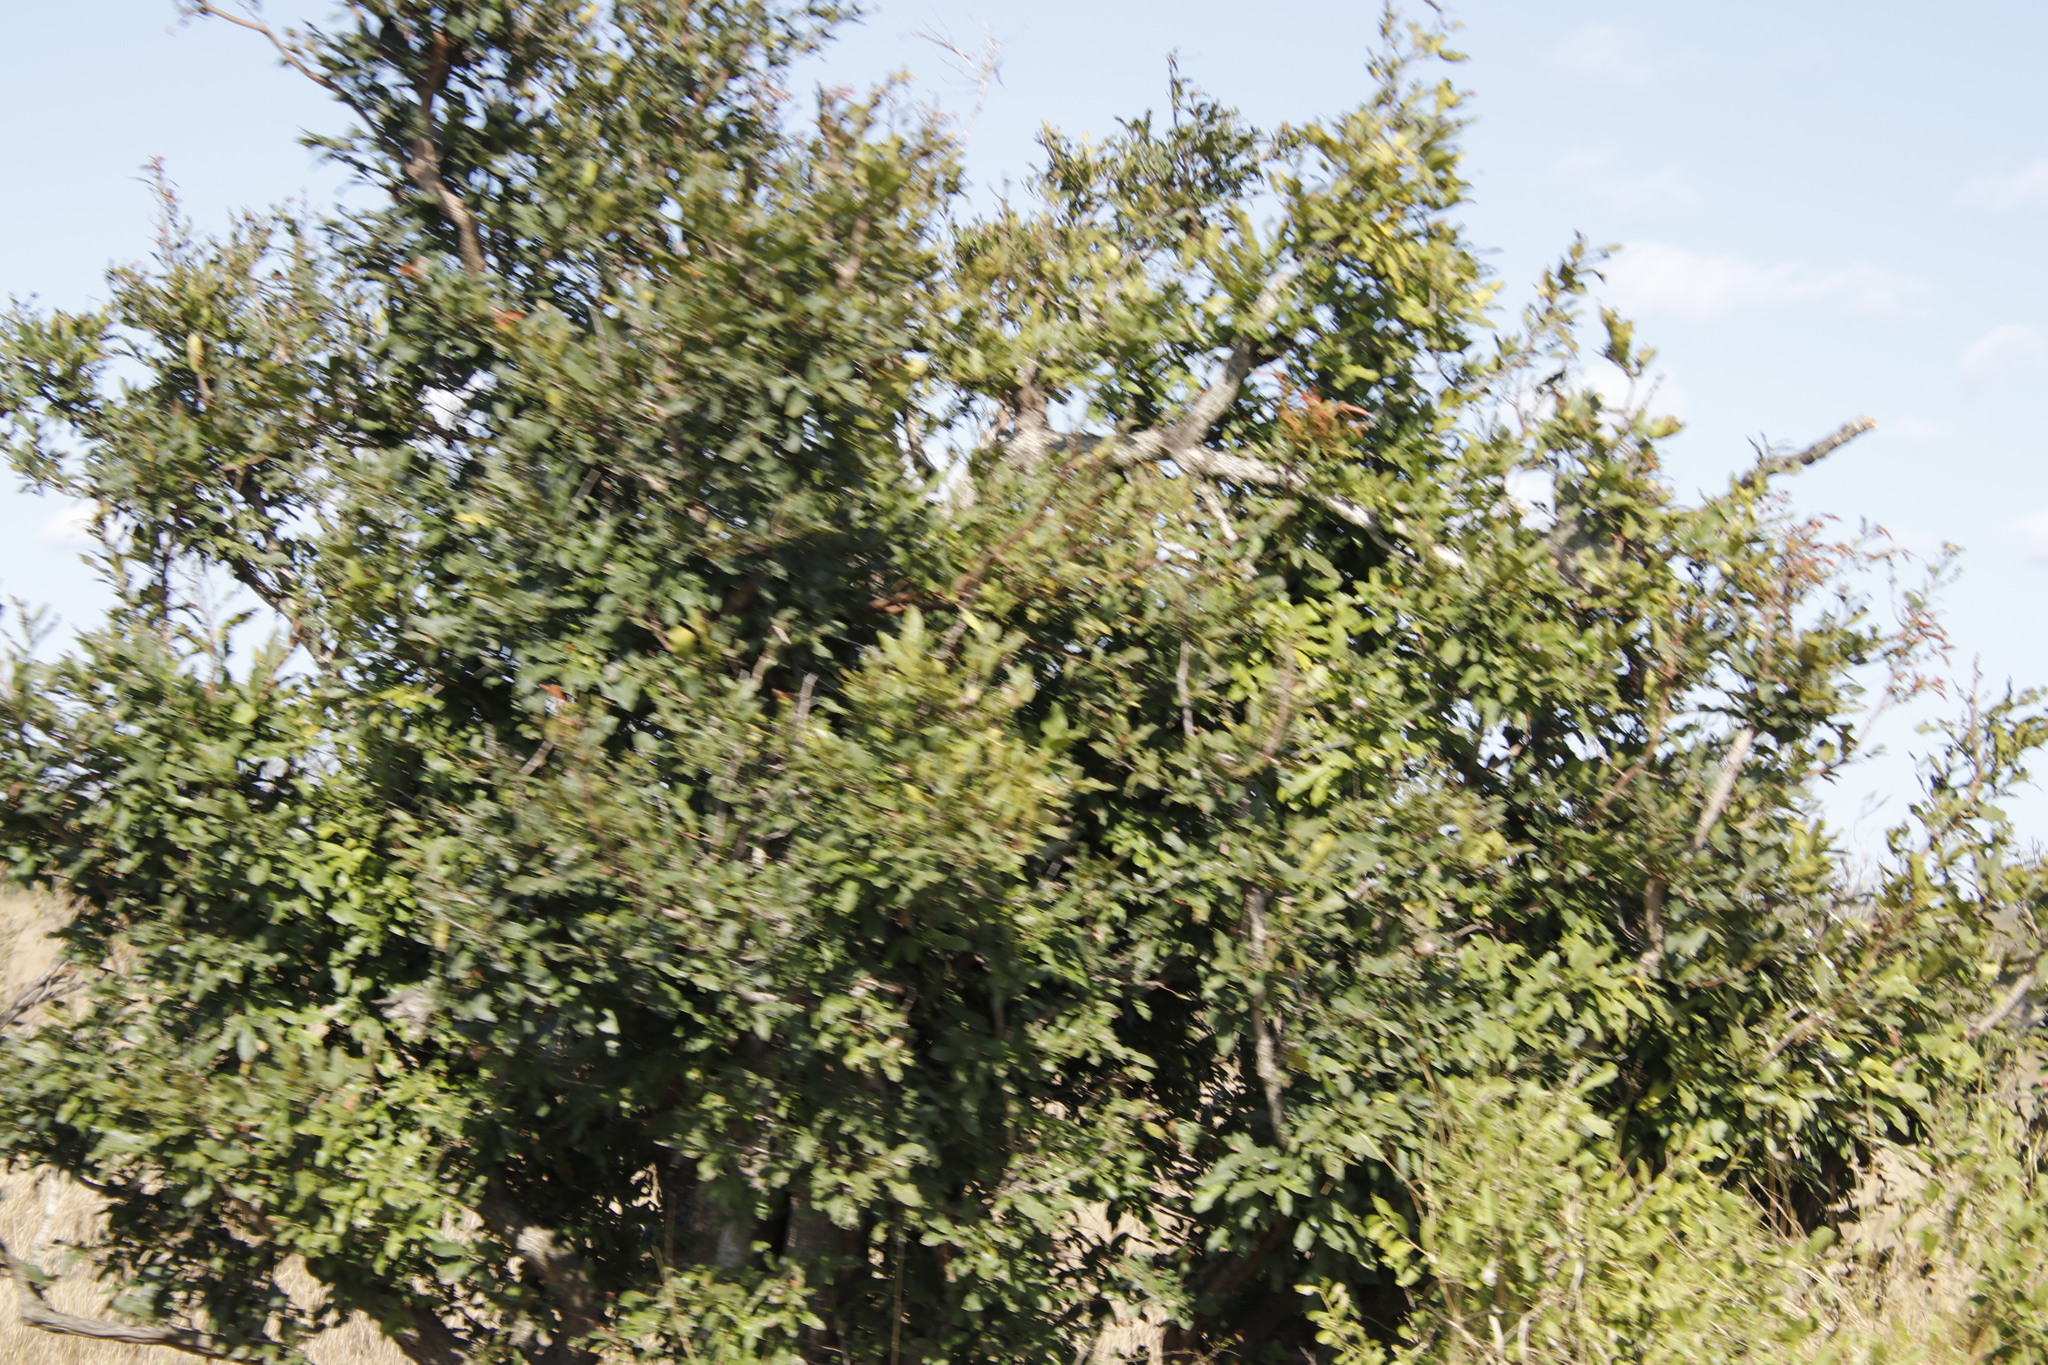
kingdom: Plantae
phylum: Tracheophyta
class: Magnoliopsida
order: Ericales
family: Ebenaceae
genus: Diospyros
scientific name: Diospyros mespiliformis
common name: Ebony diospyros
